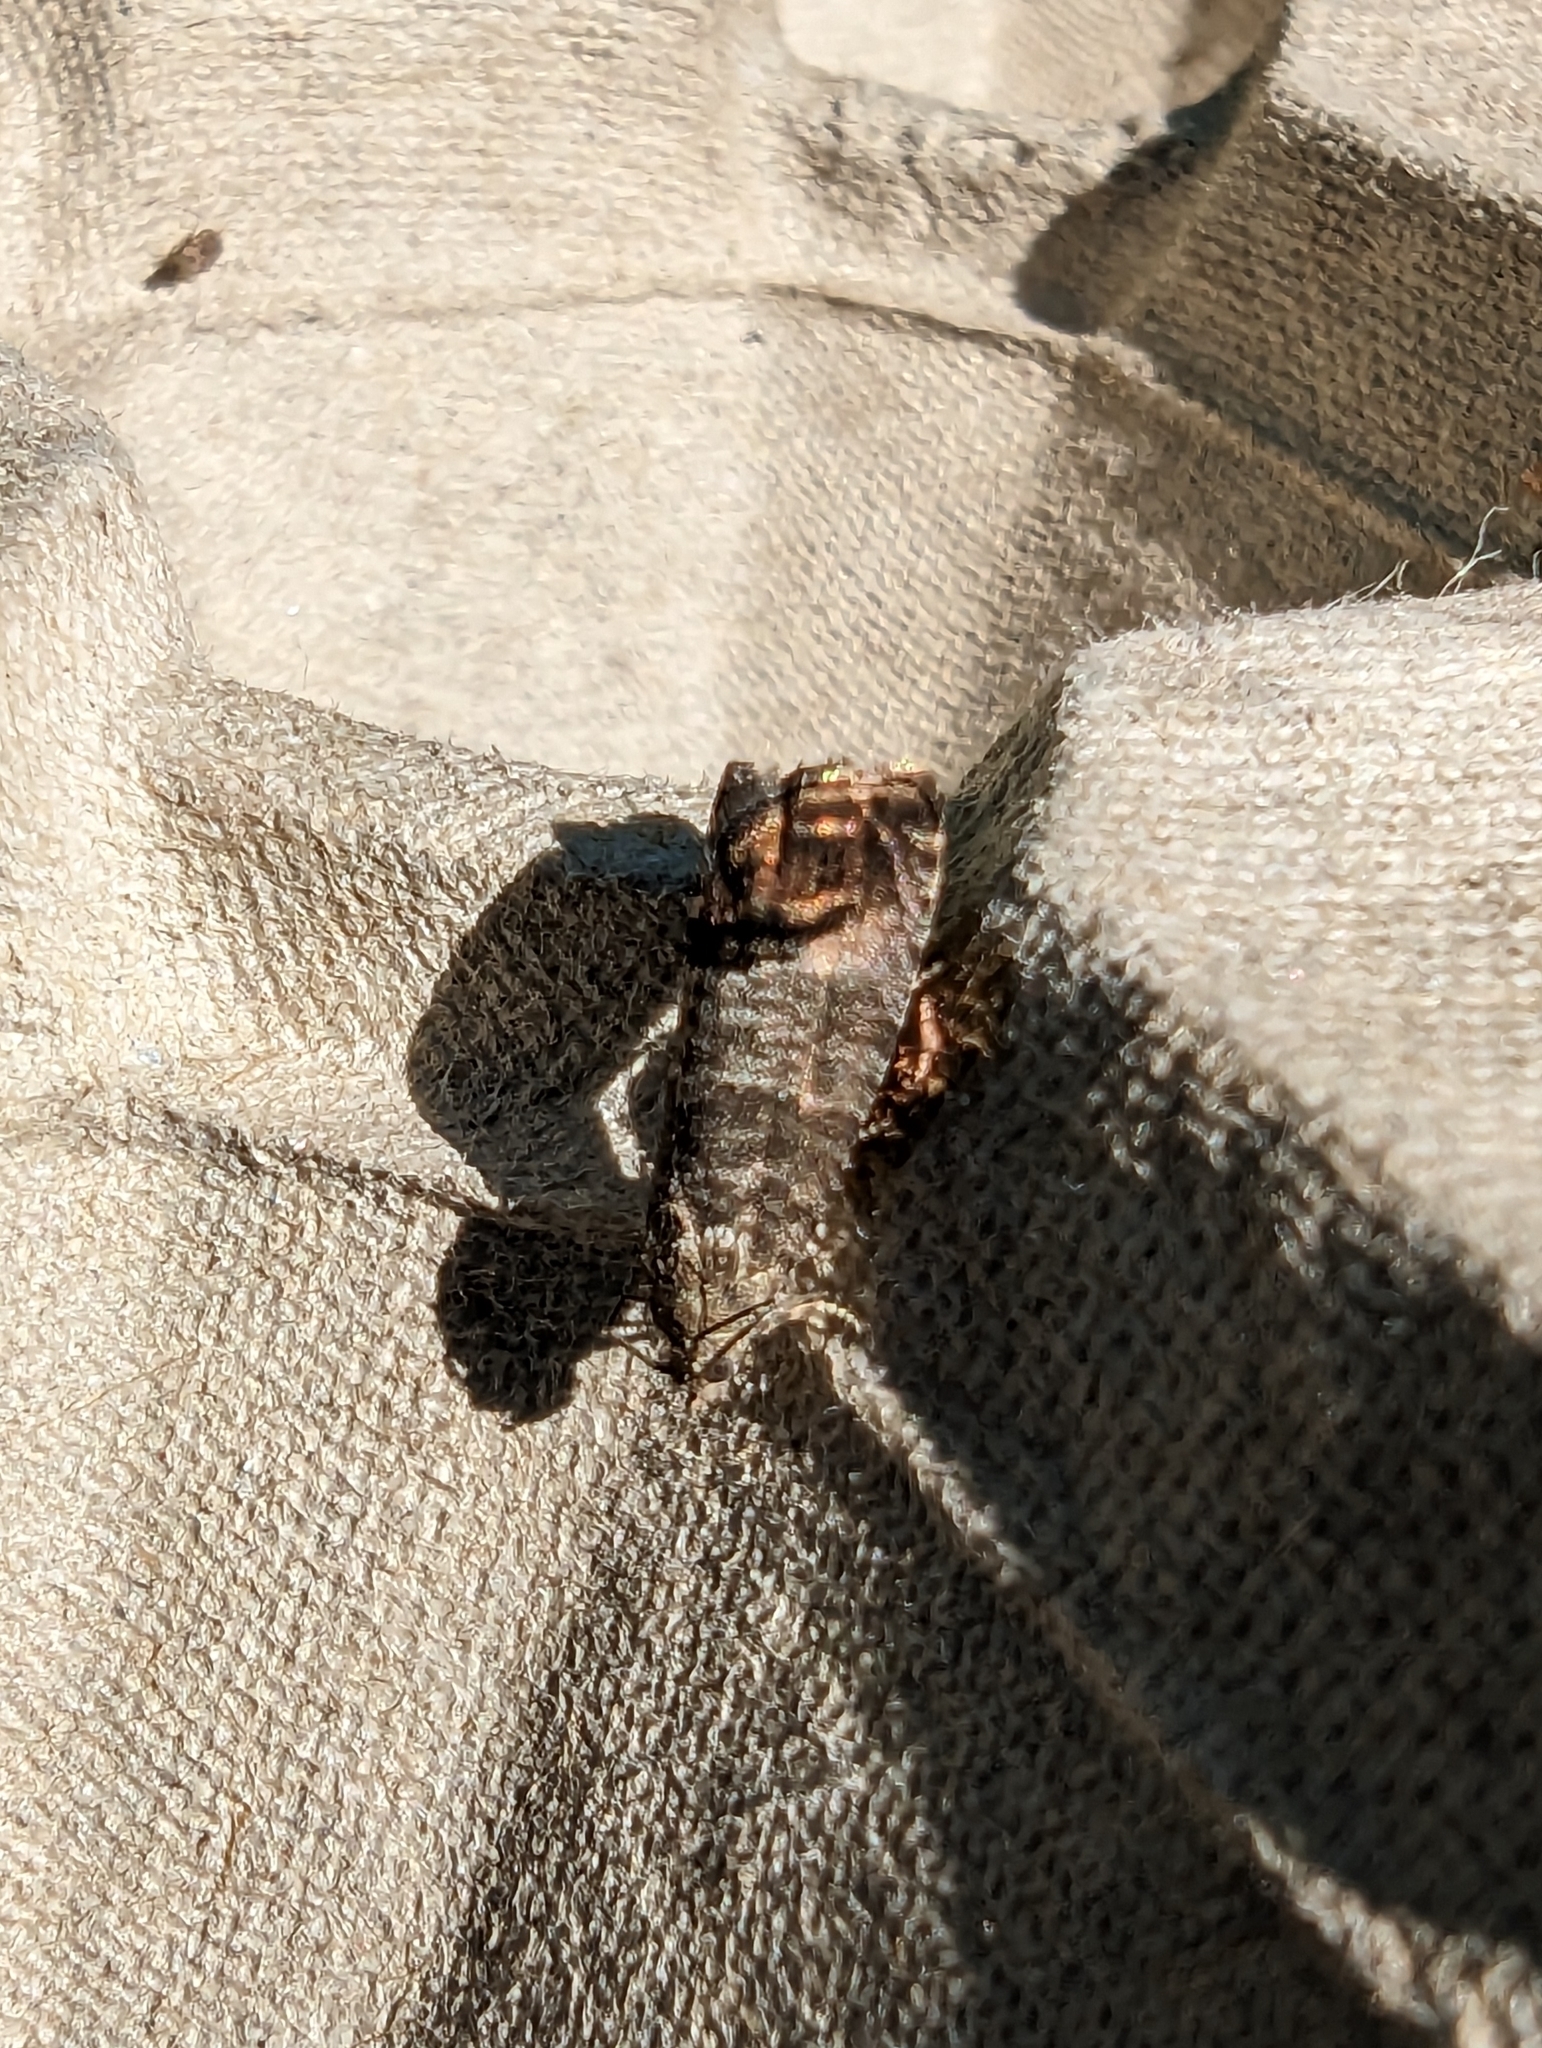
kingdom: Animalia
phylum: Arthropoda
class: Insecta
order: Lepidoptera
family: Tortricidae
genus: Cydia
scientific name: Cydia pomonella
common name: Codling moth
